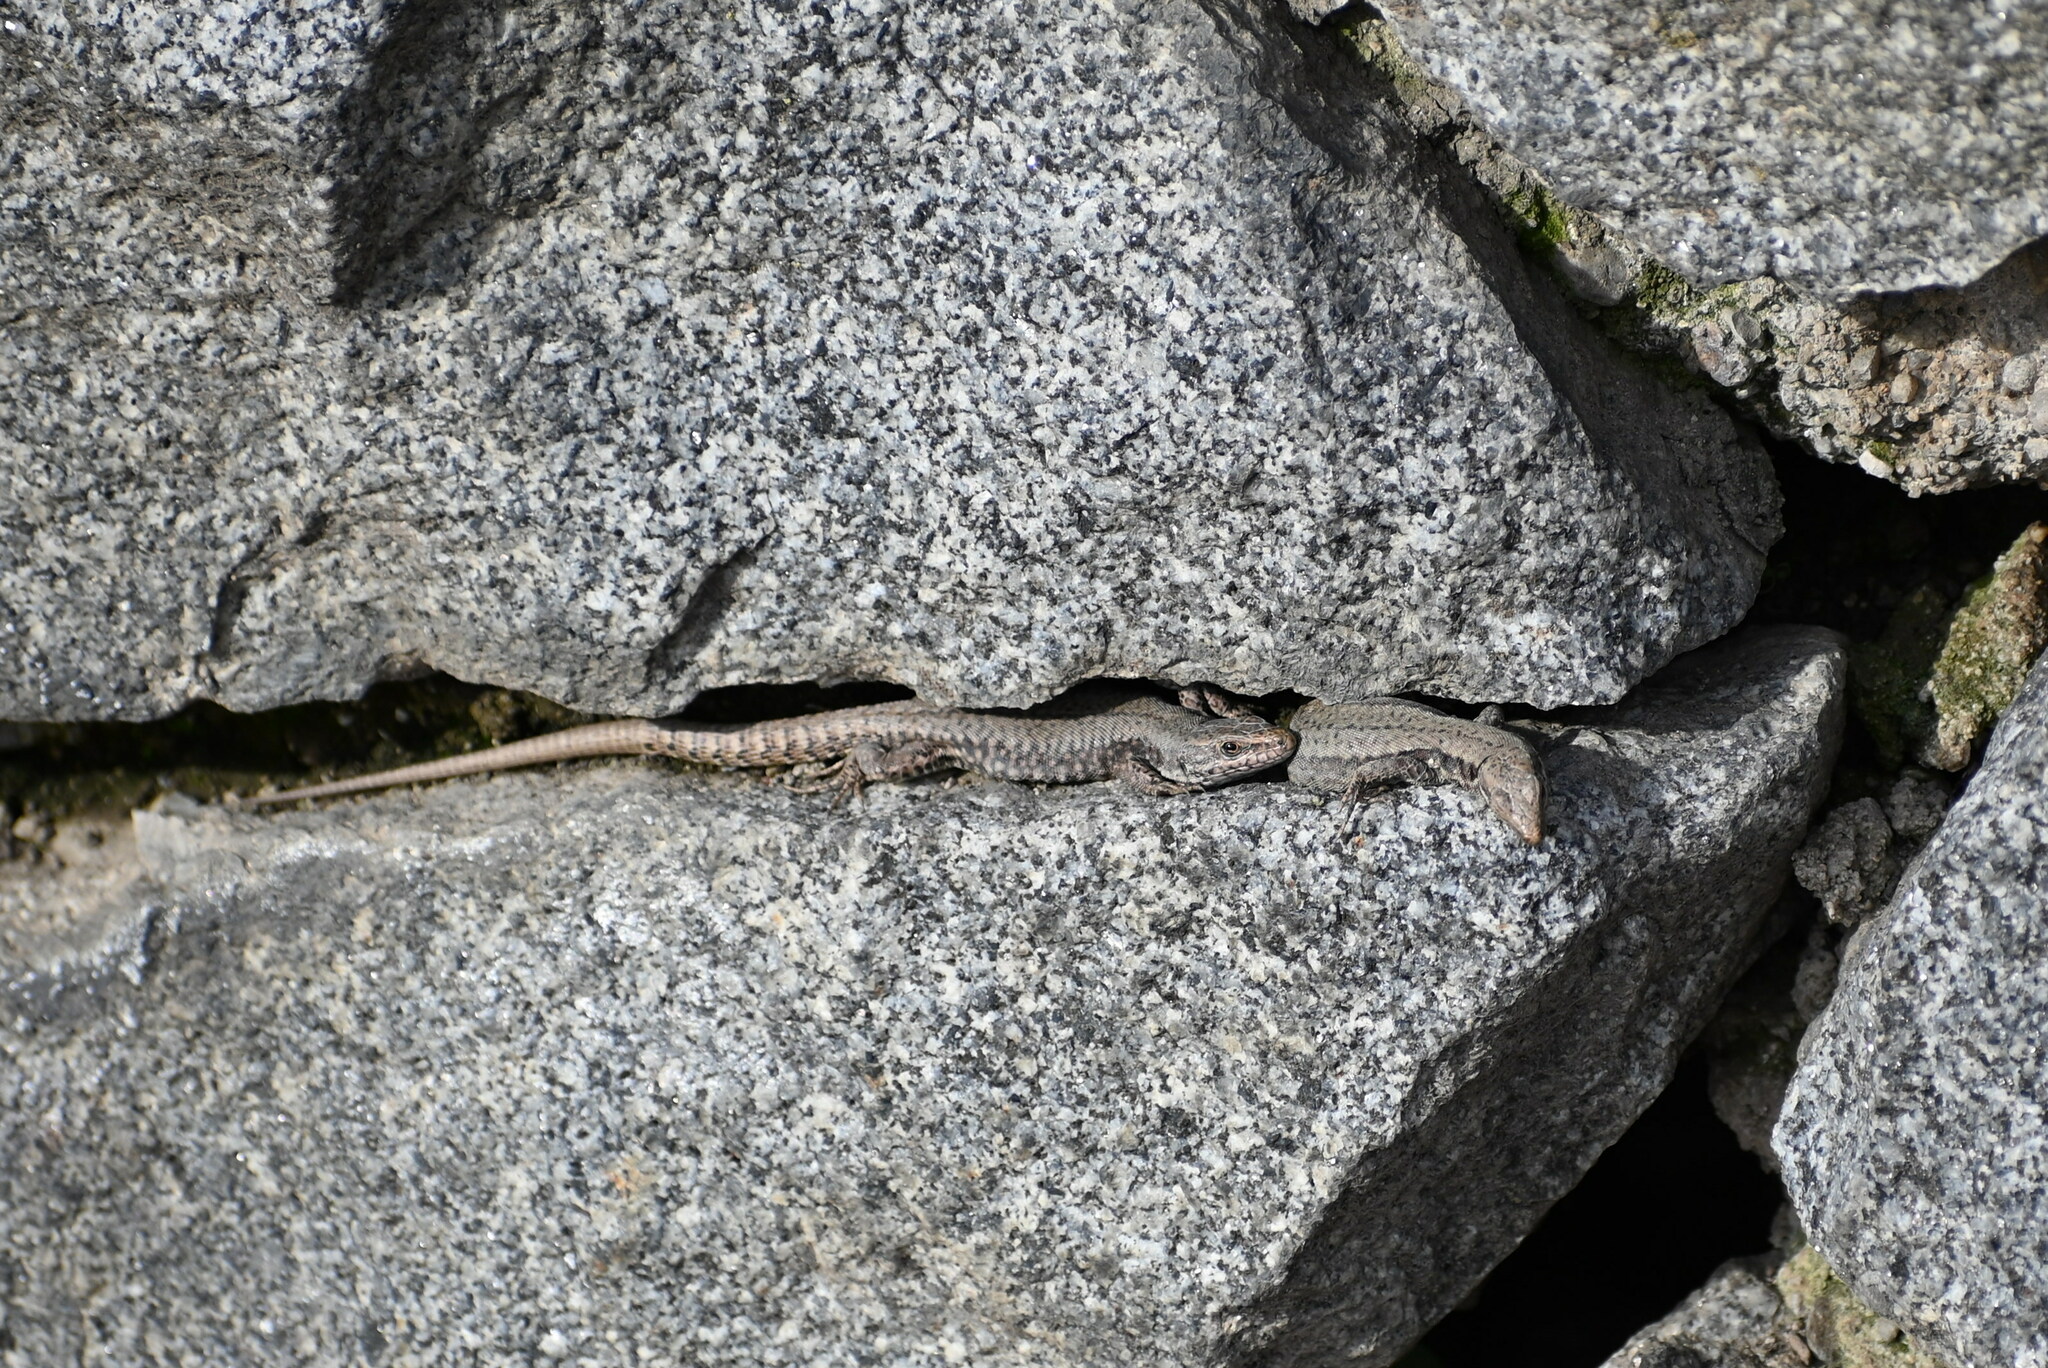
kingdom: Animalia
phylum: Chordata
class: Squamata
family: Lacertidae
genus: Podarcis
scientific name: Podarcis muralis
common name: Common wall lizard
